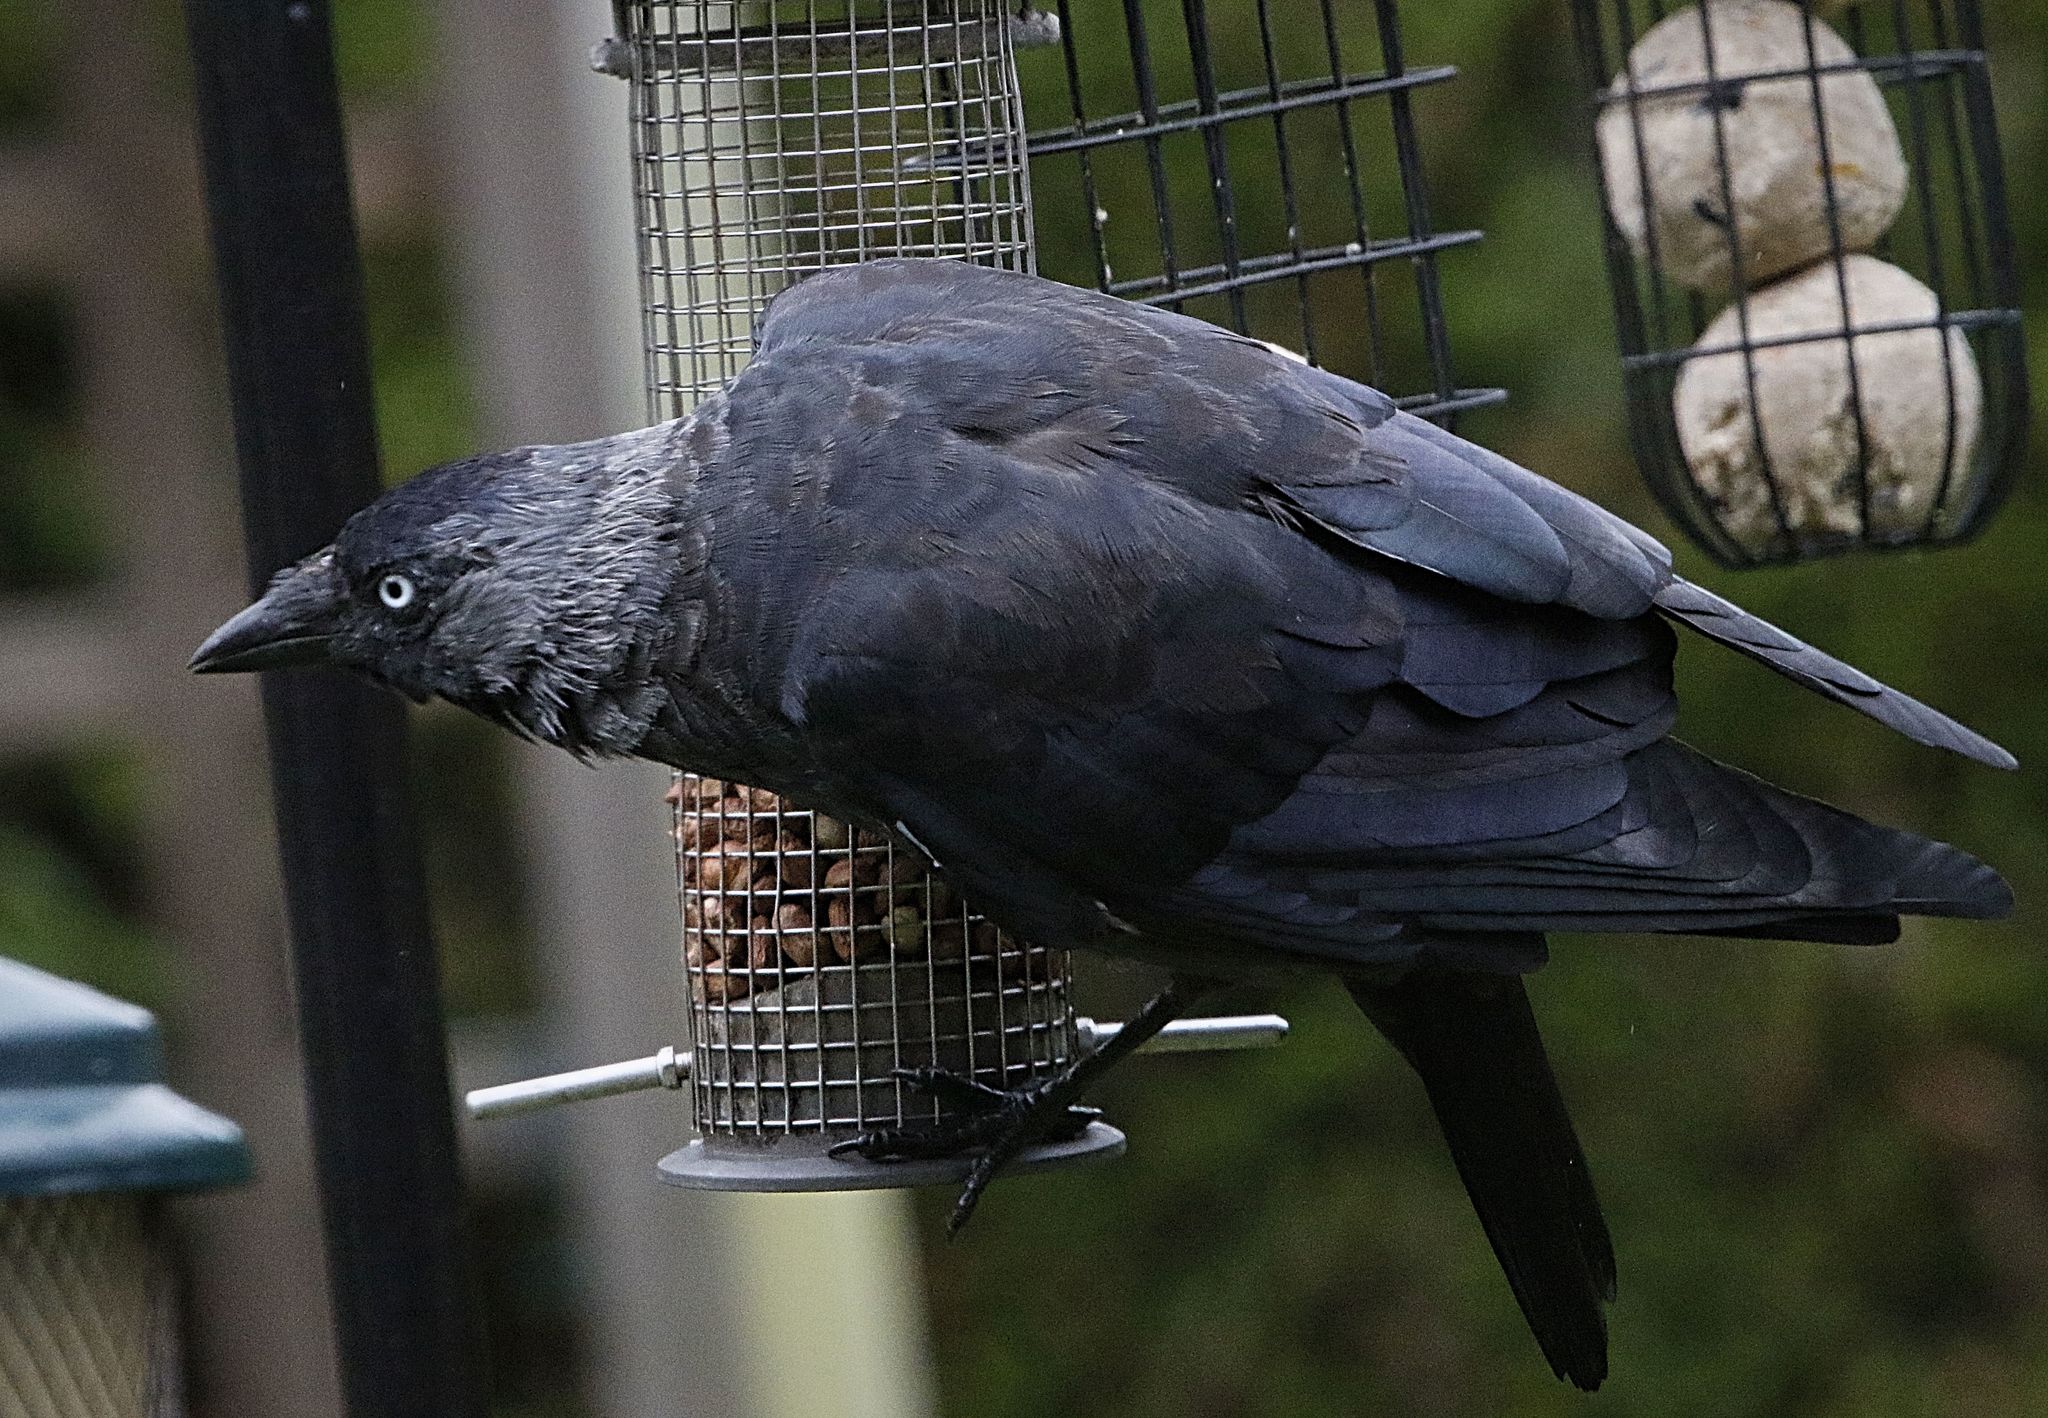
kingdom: Animalia
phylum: Chordata
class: Aves
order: Passeriformes
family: Corvidae
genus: Coloeus
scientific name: Coloeus monedula
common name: Western jackdaw
